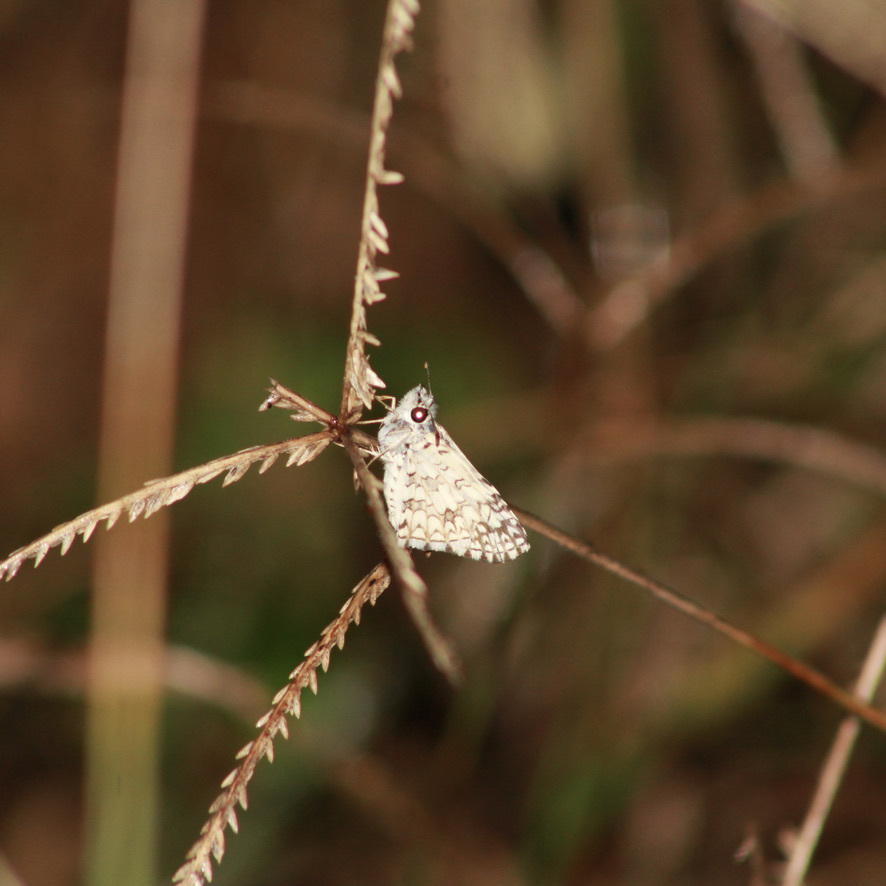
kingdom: Animalia
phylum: Arthropoda
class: Insecta
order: Lepidoptera
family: Hesperiidae
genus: Pyrgus
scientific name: Pyrgus oileus
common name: Tropical checkered-skipper
